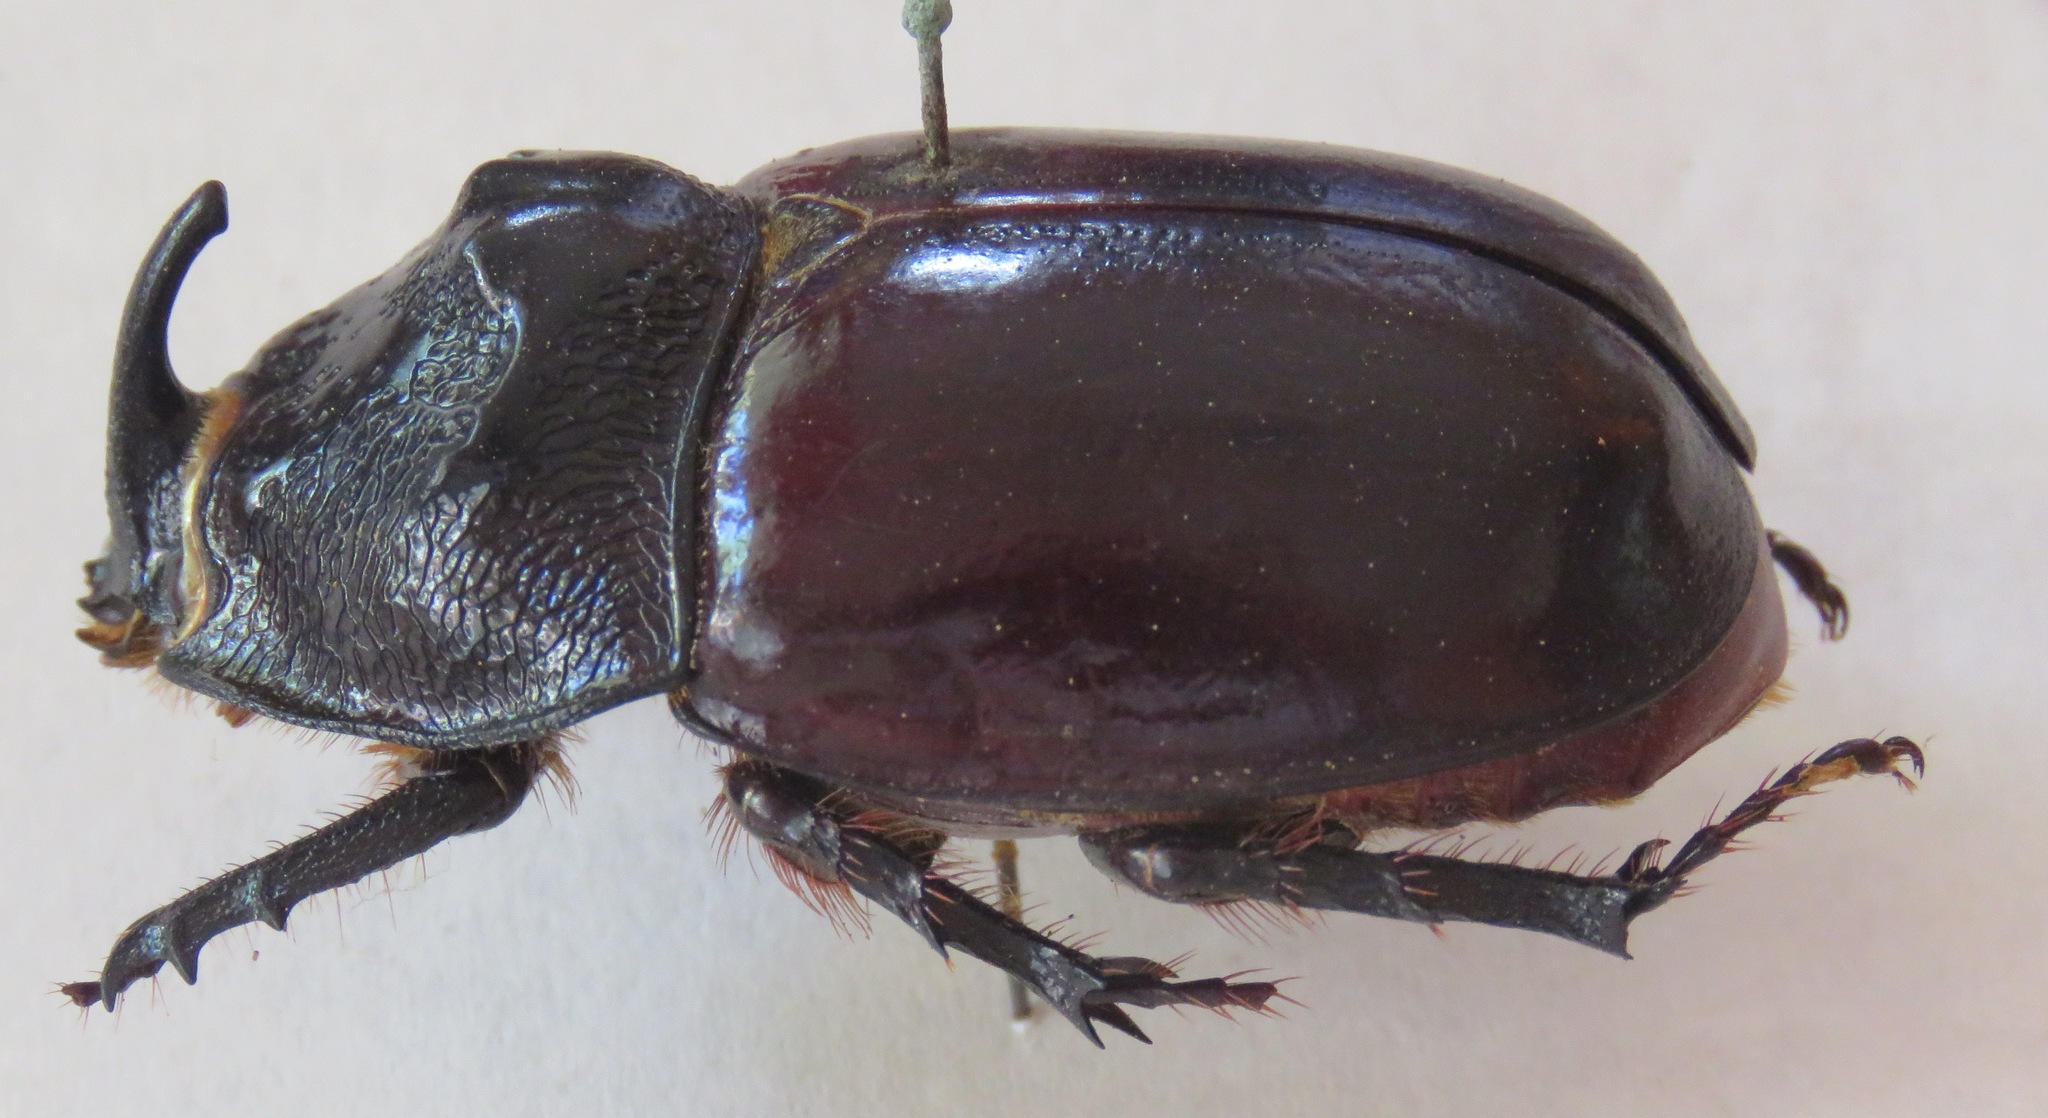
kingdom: Animalia
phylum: Arthropoda
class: Insecta
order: Coleoptera
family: Scarabaeidae
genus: Trichogomphus
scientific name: Trichogomphus simson
